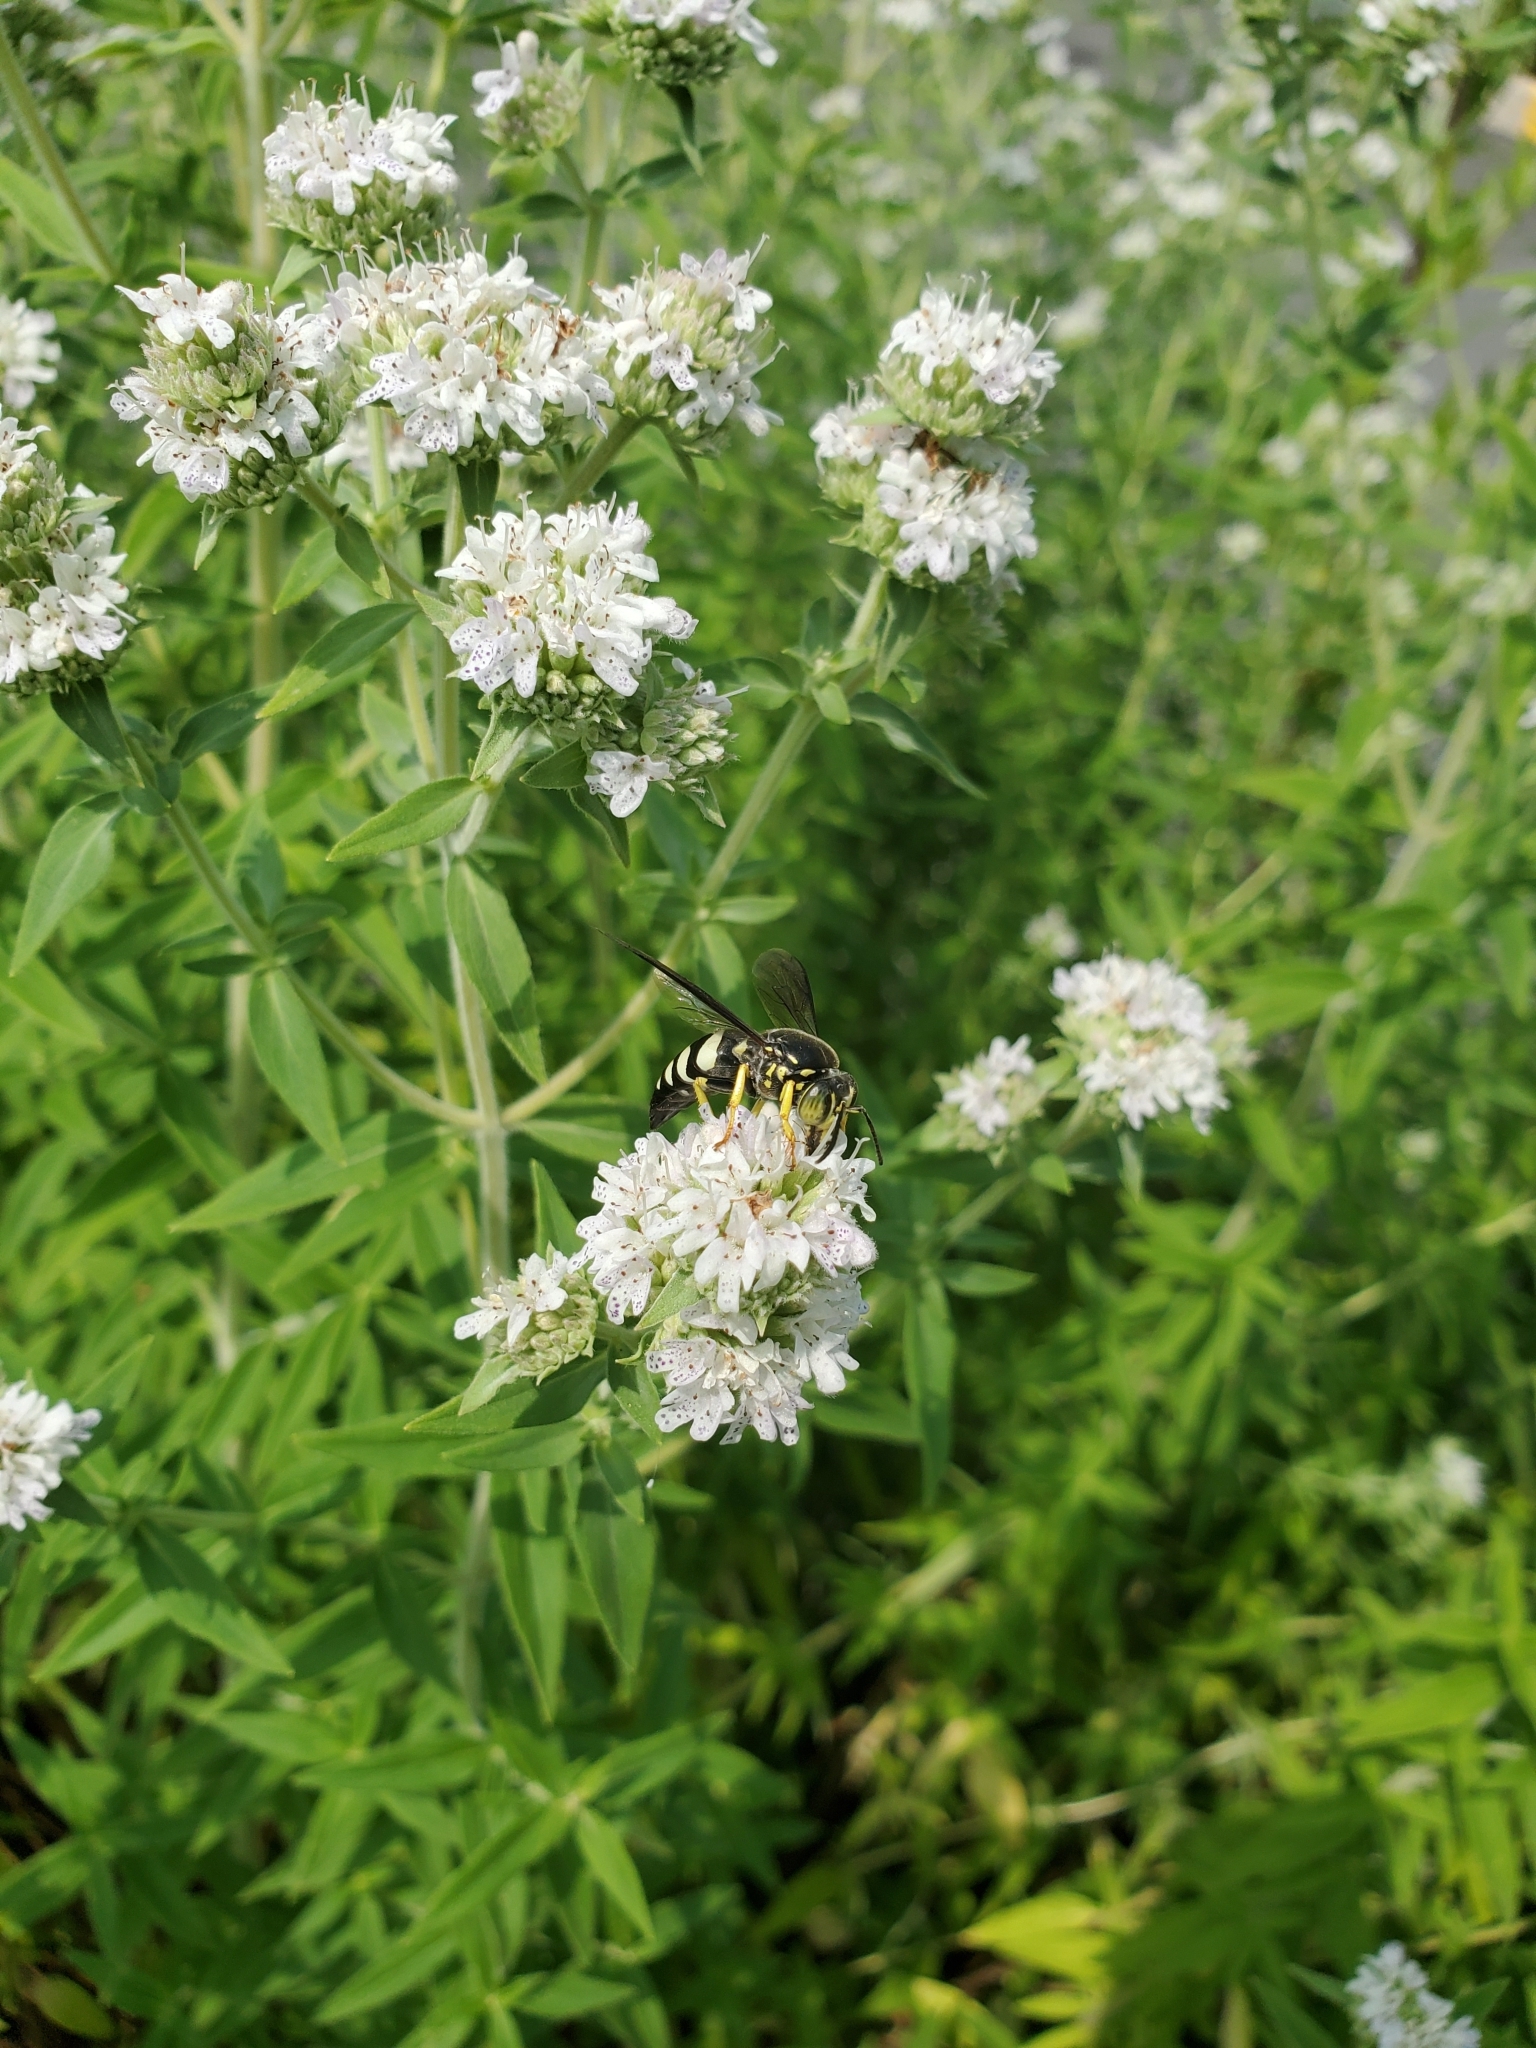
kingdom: Animalia
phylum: Arthropoda
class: Insecta
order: Hymenoptera
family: Crabronidae
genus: Bicyrtes
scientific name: Bicyrtes quadrifasciatus
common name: Four-banded stink bug hunter wasp
